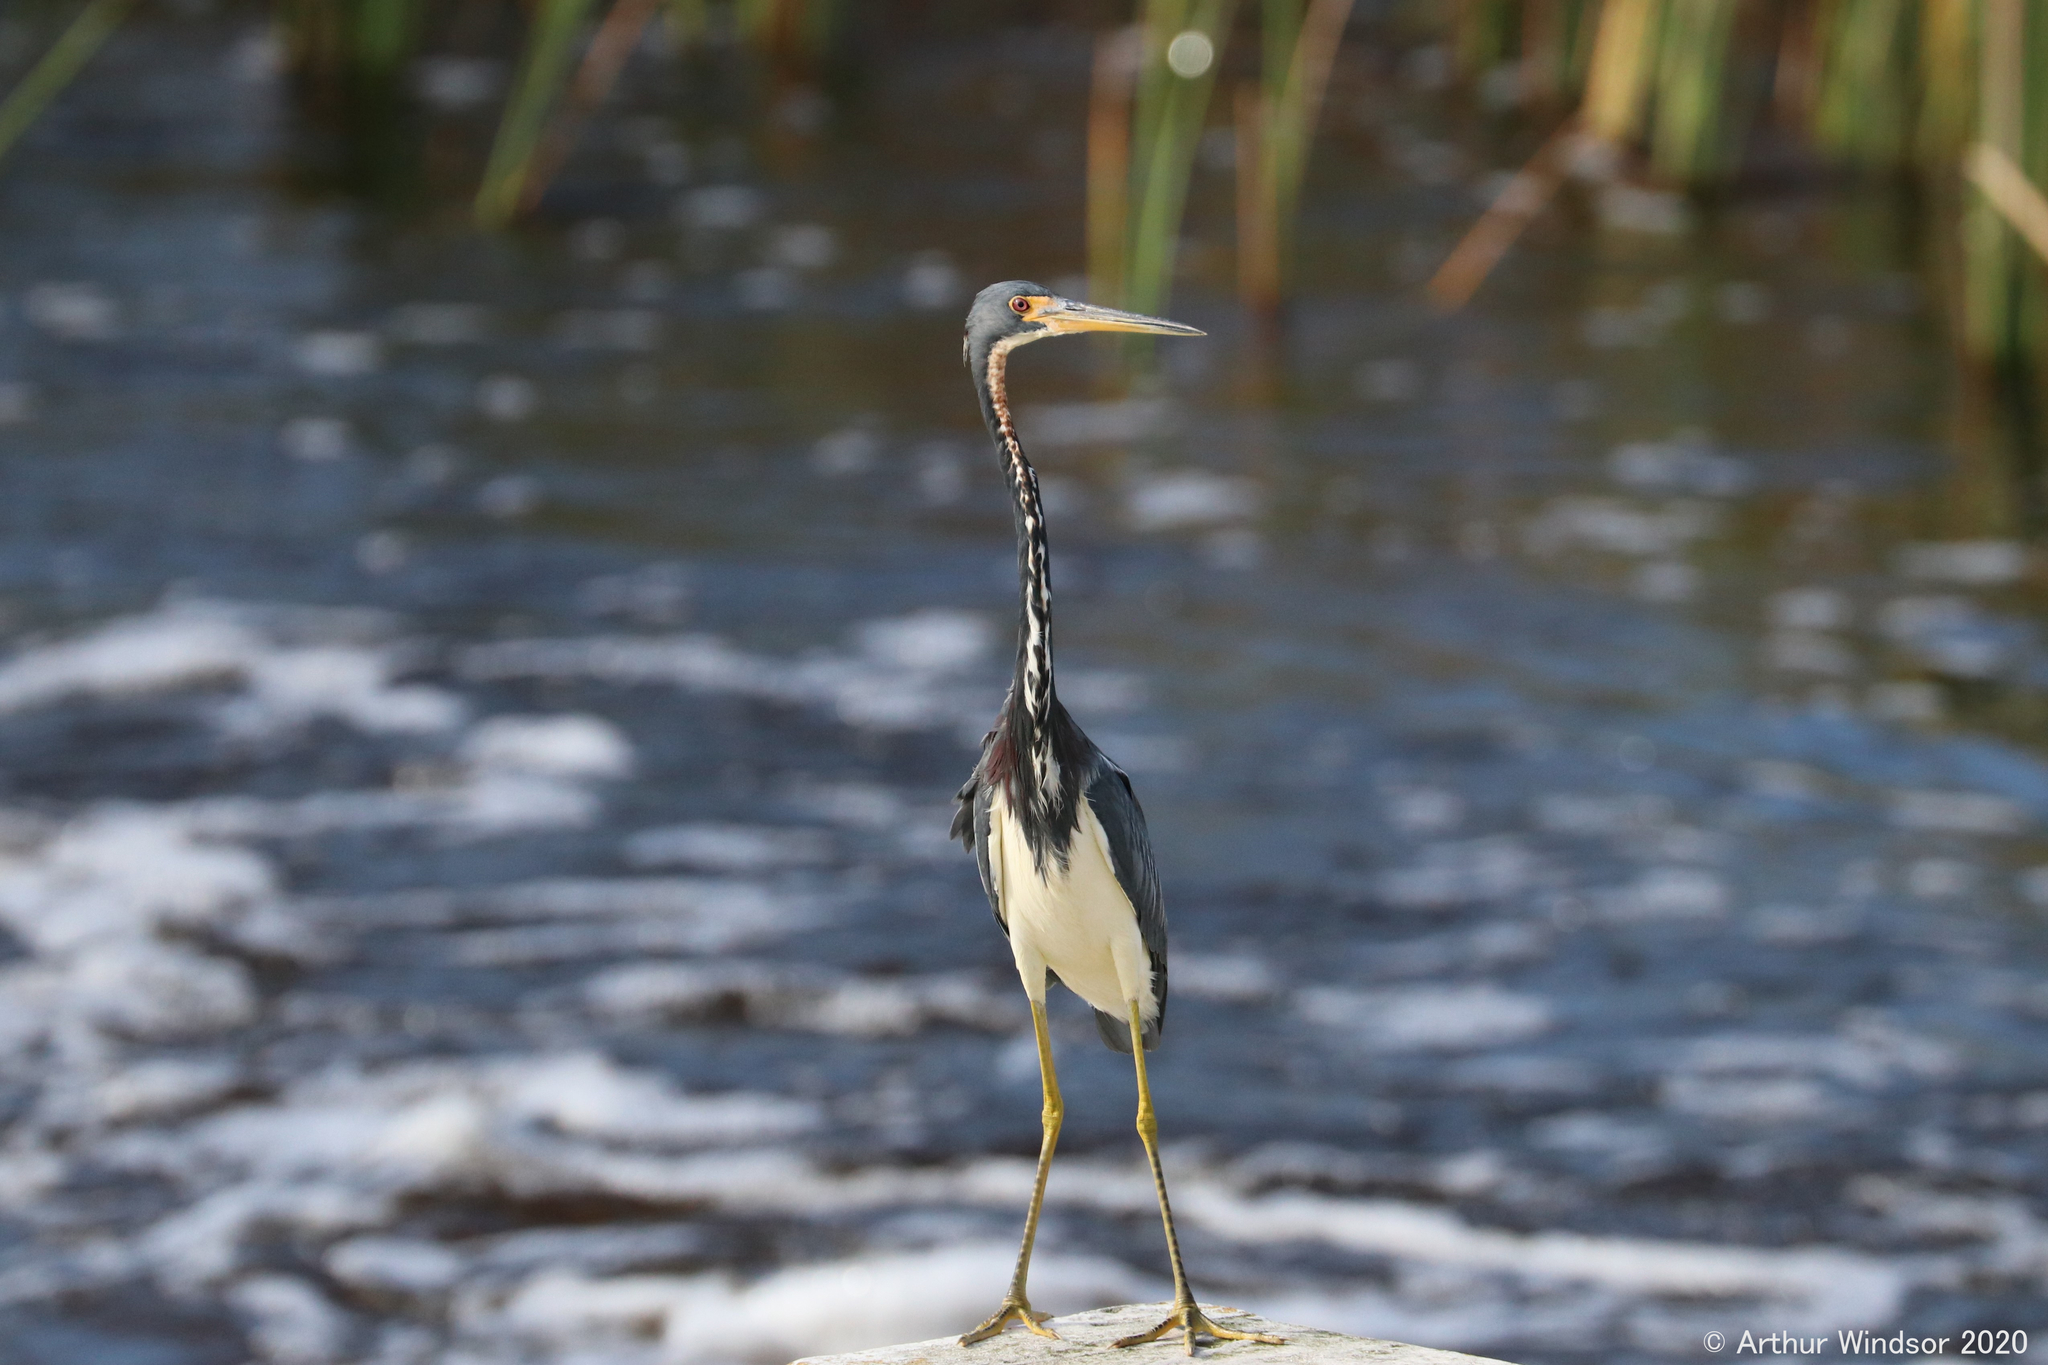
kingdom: Animalia
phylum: Chordata
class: Aves
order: Pelecaniformes
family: Ardeidae
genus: Egretta
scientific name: Egretta tricolor
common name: Tricolored heron
